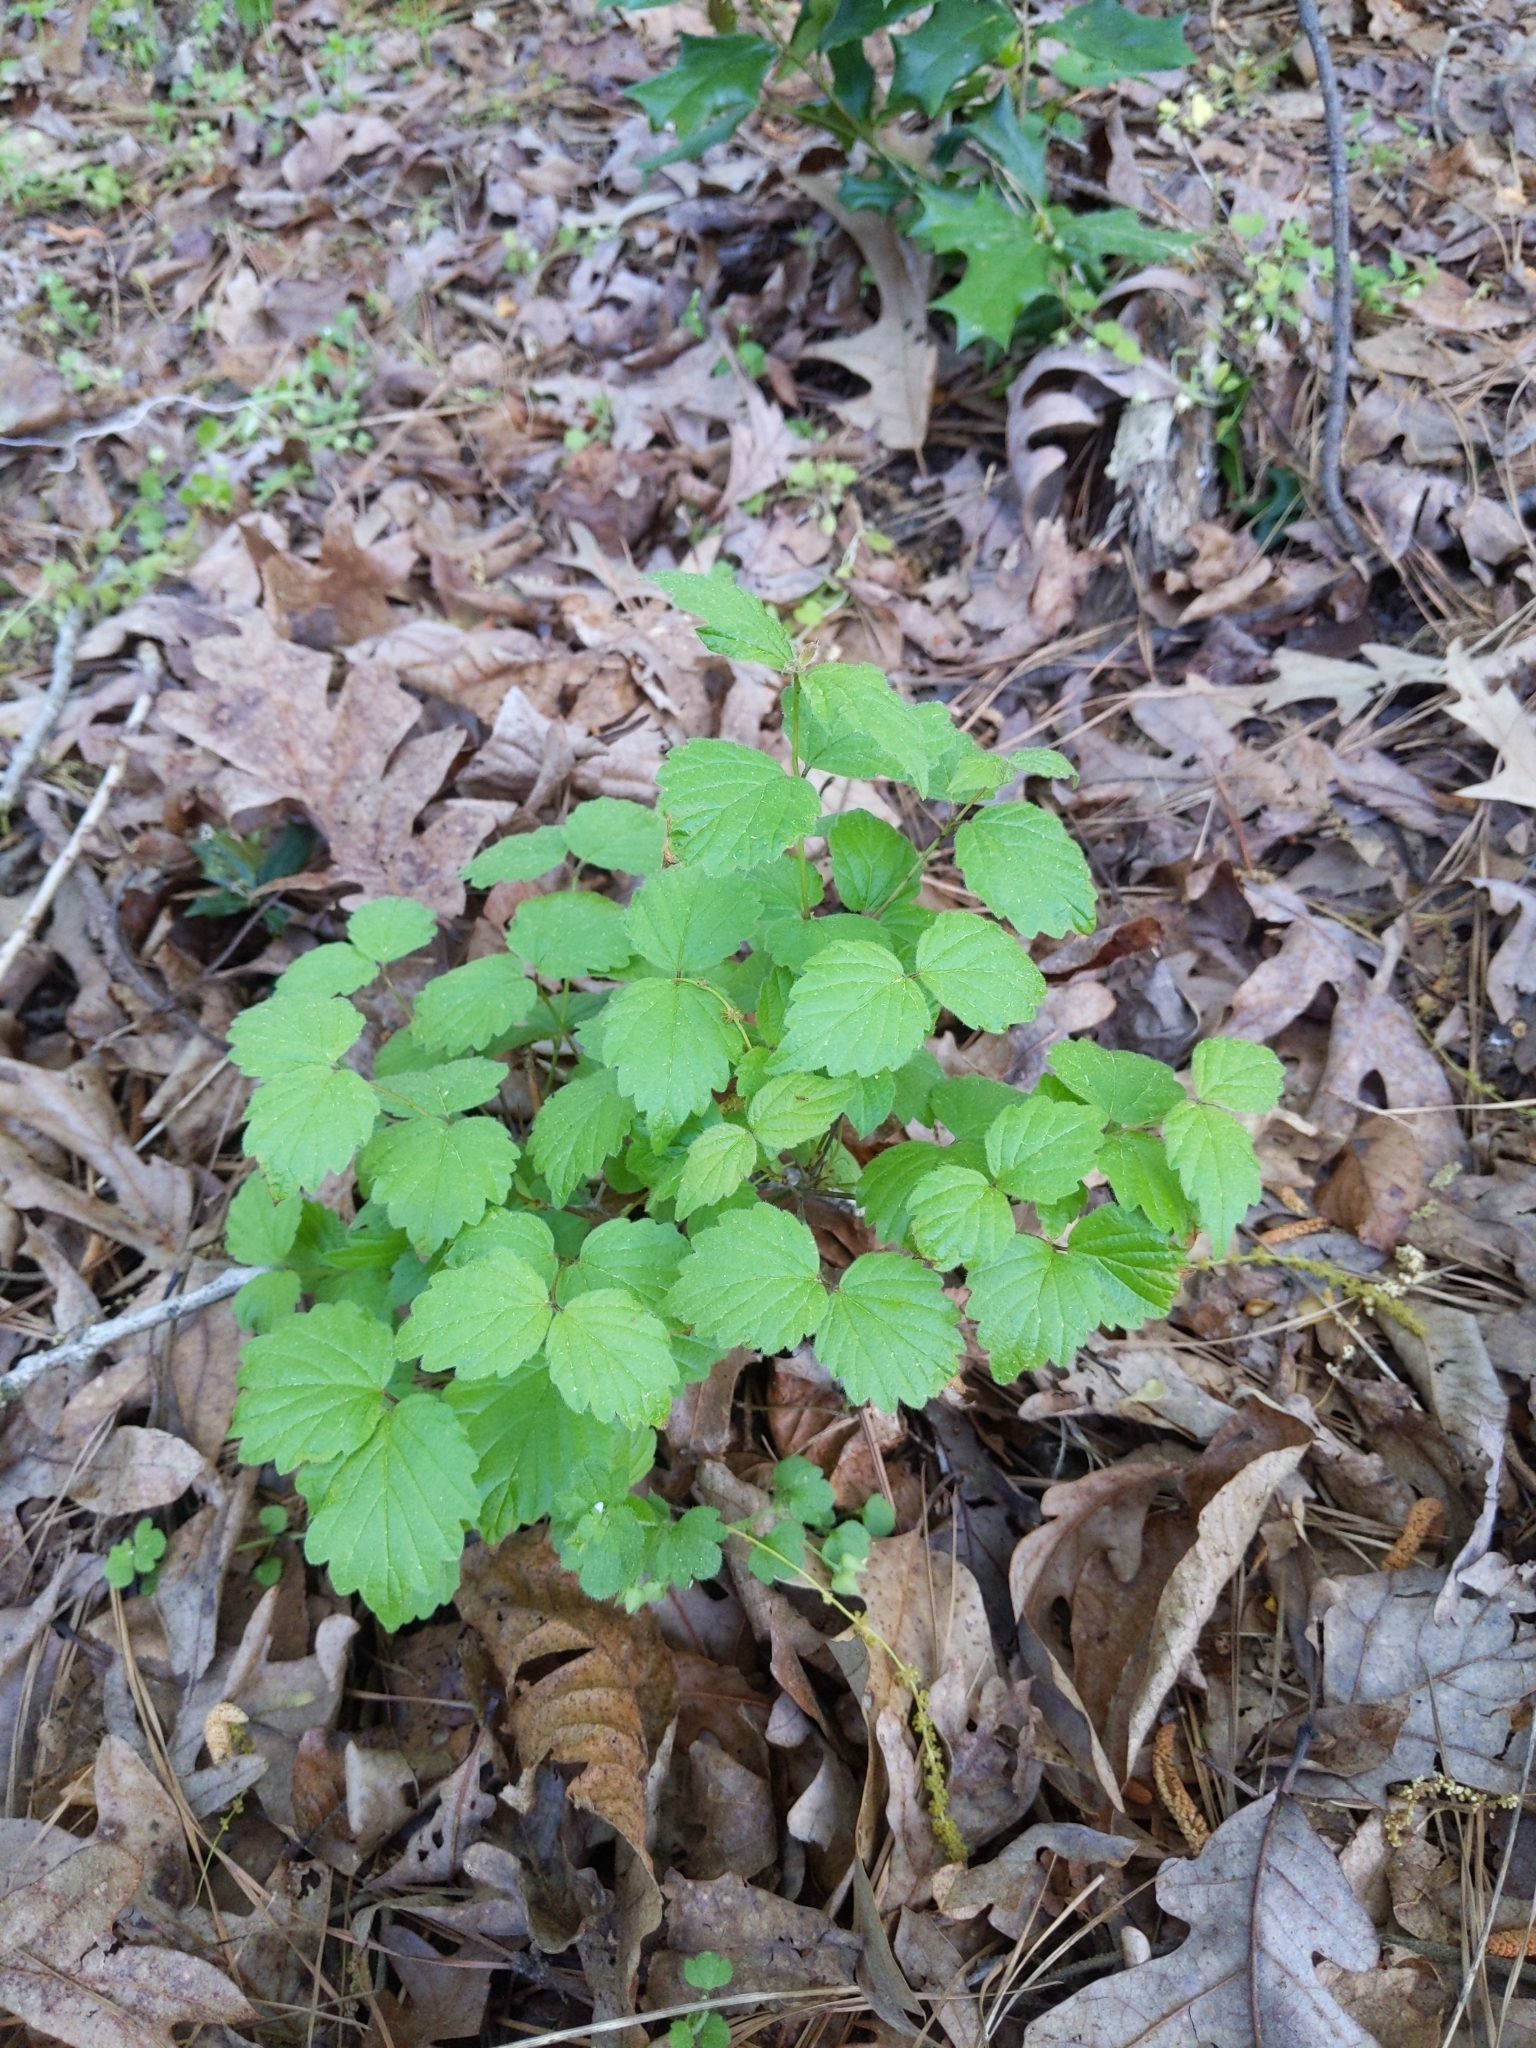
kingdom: Plantae
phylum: Tracheophyta
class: Magnoliopsida
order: Dipsacales
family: Viburnaceae
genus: Viburnum
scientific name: Viburnum rafinesqueanum
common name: Downy arrow-wood
